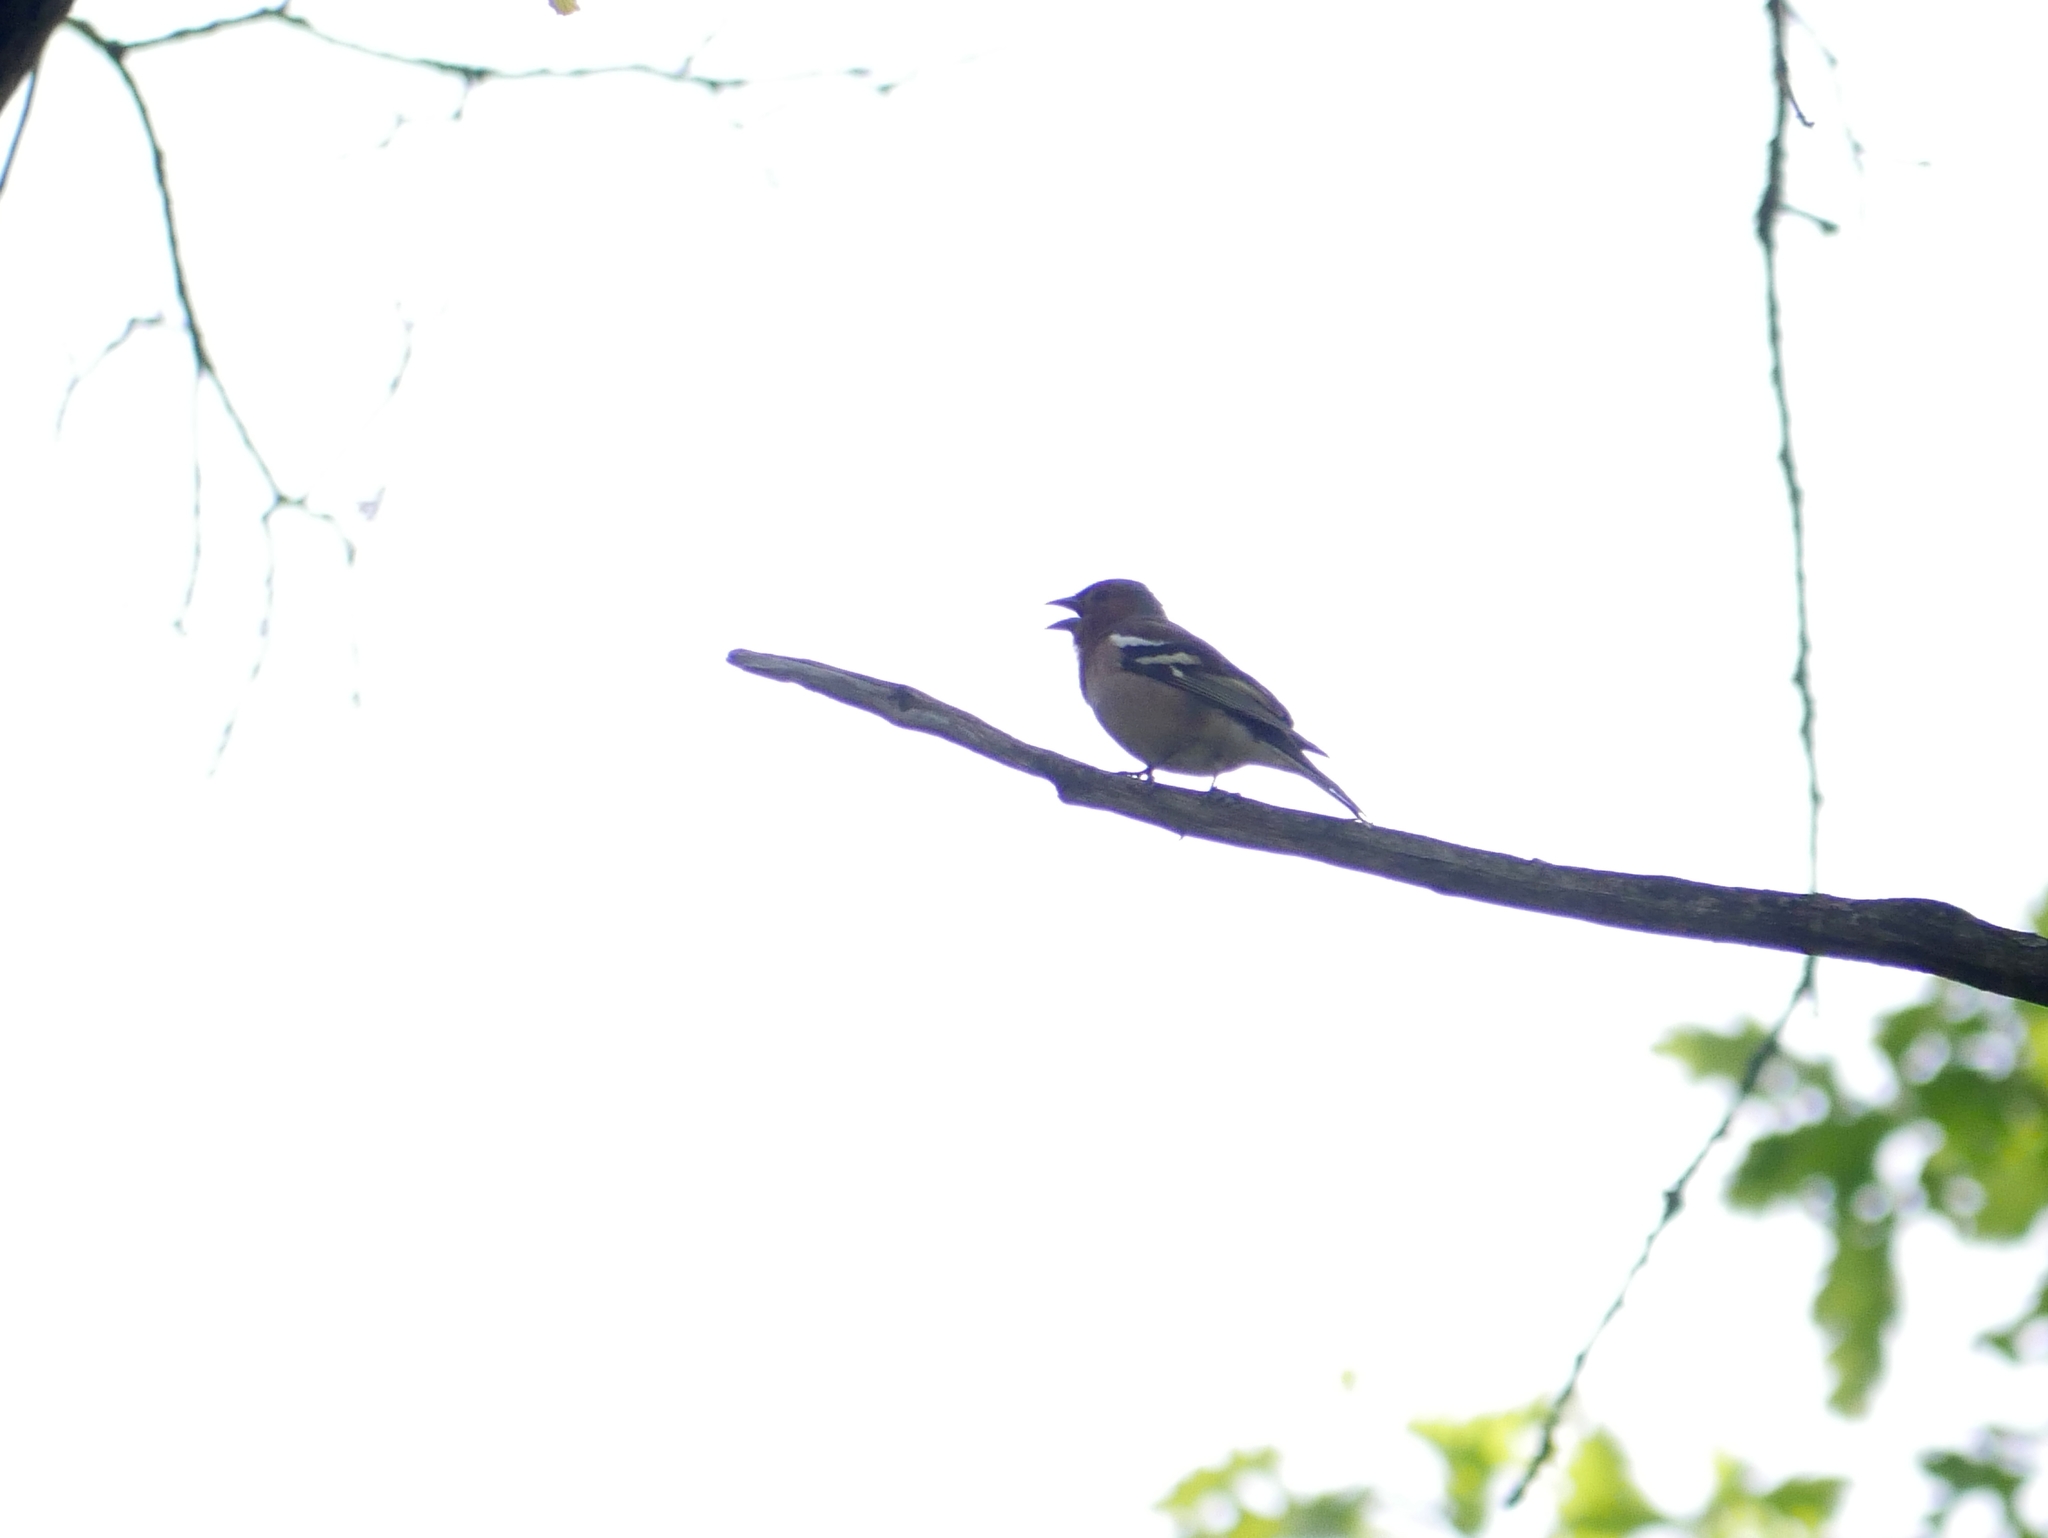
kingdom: Animalia
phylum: Chordata
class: Aves
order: Passeriformes
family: Fringillidae
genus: Fringilla
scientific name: Fringilla coelebs
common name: Common chaffinch
